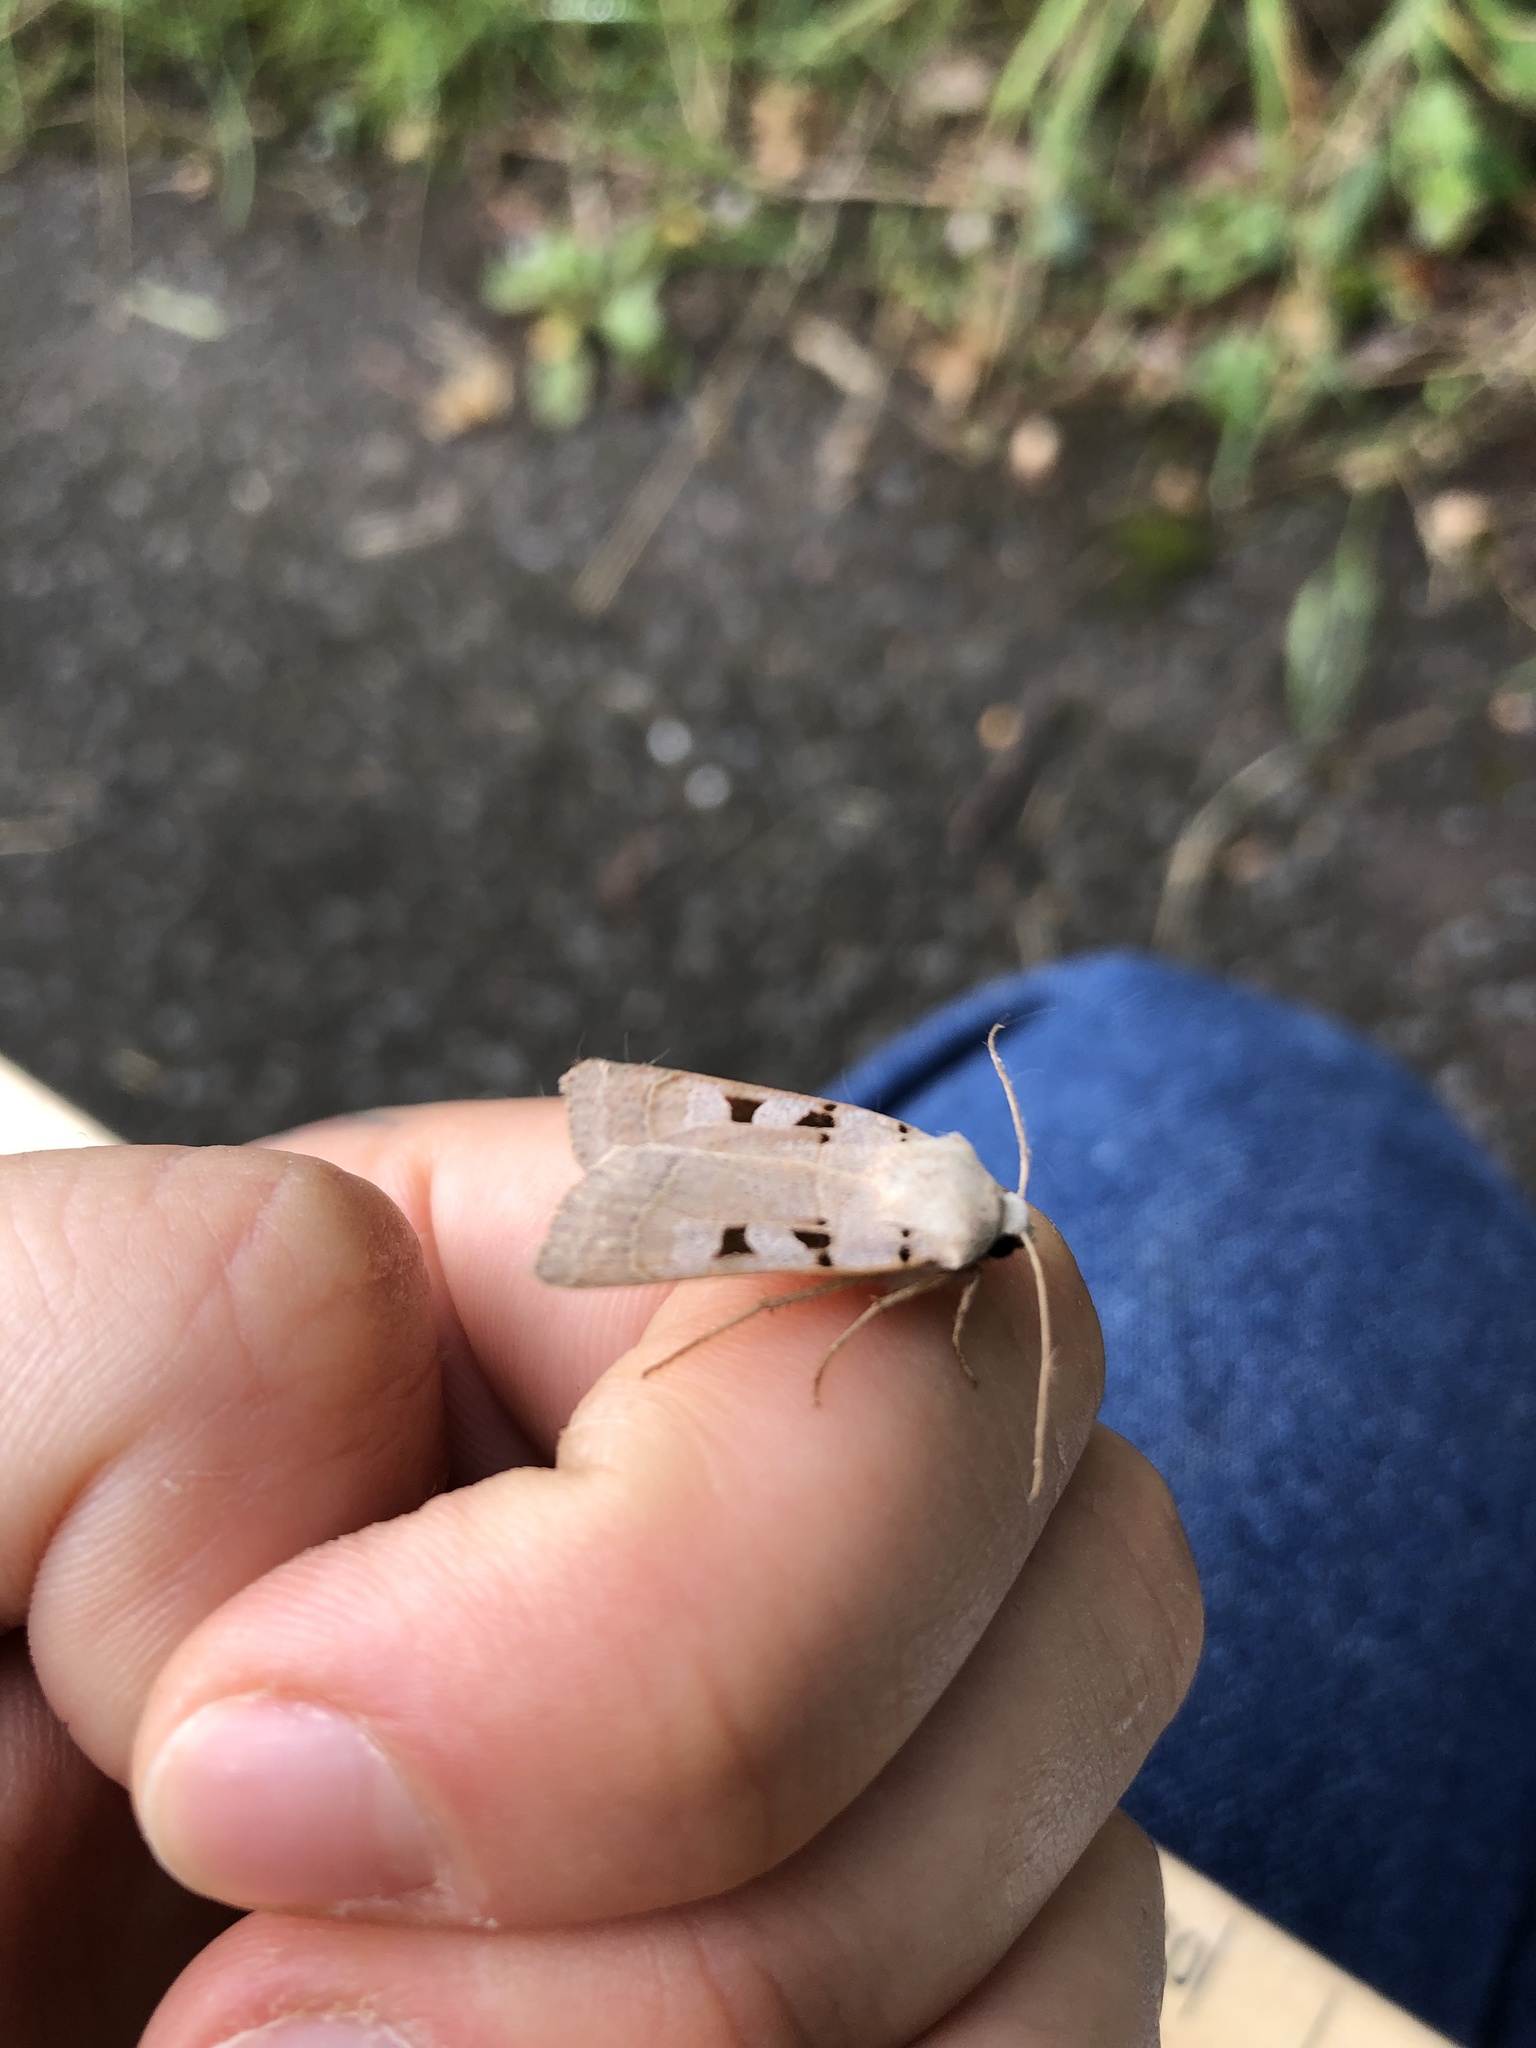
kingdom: Animalia
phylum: Arthropoda
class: Insecta
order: Lepidoptera
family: Noctuidae
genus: Eugnorisma
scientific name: Eugnorisma glareosa
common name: Autumnal rustic
